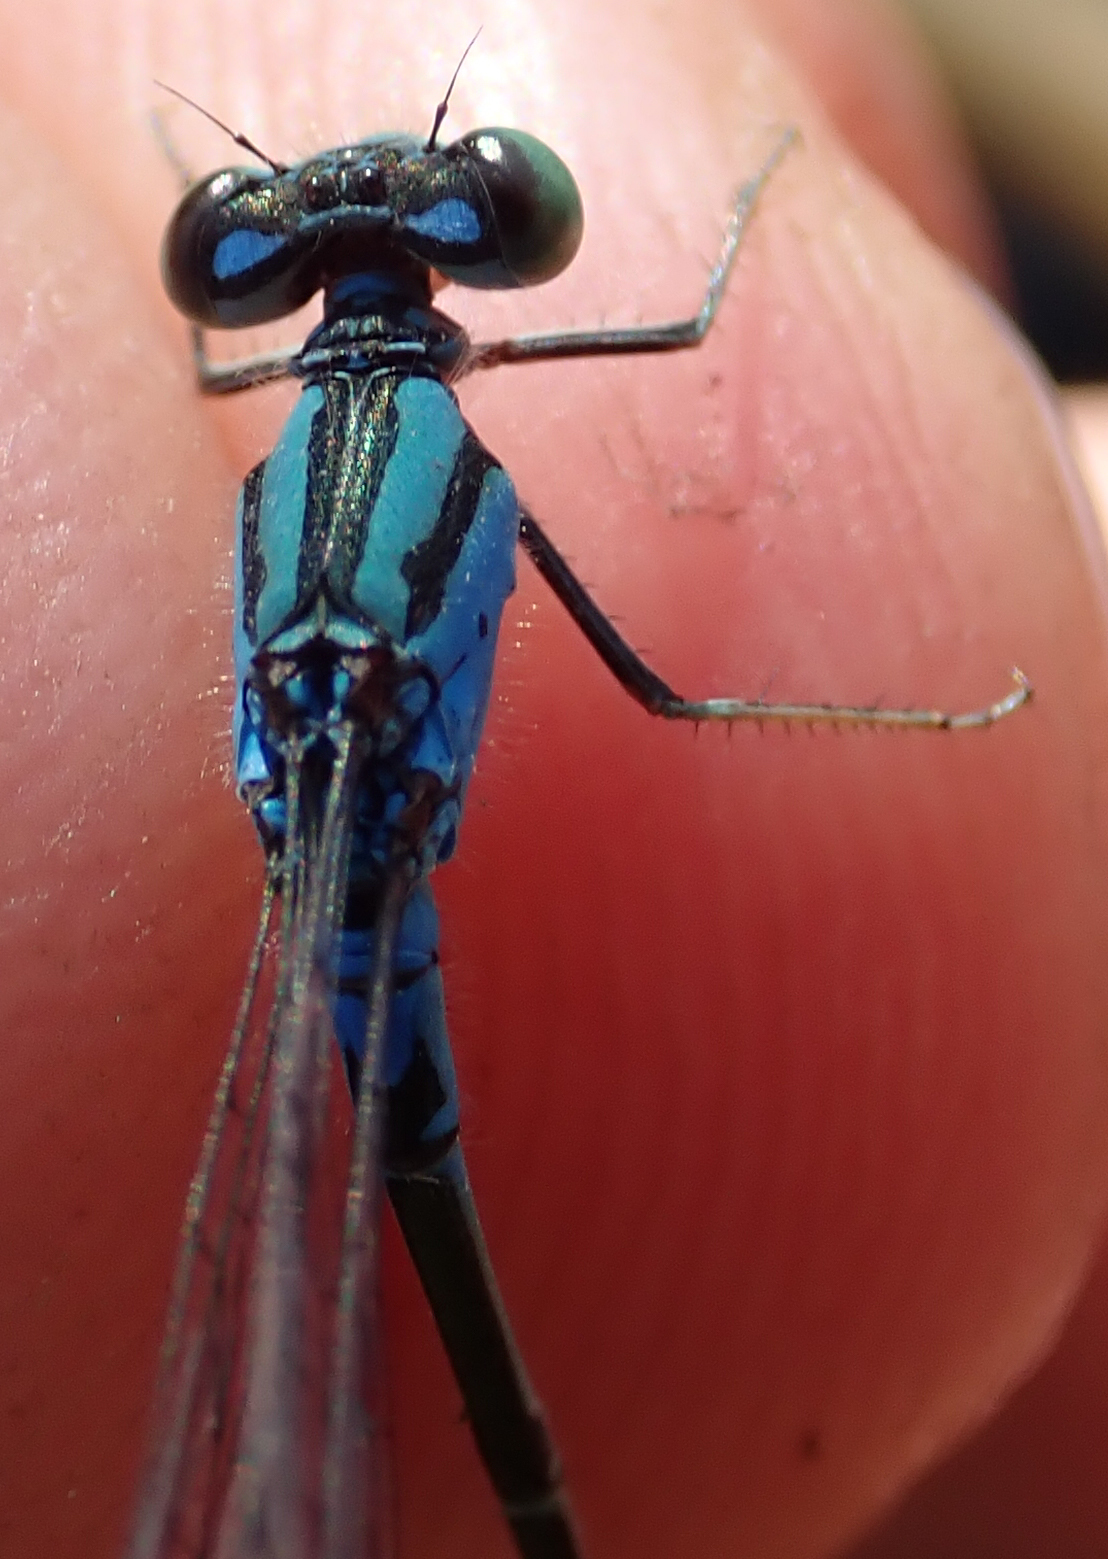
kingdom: Animalia
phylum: Arthropoda
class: Insecta
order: Odonata
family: Coenagrionidae
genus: Pseudagrion
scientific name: Pseudagrion coeleste
